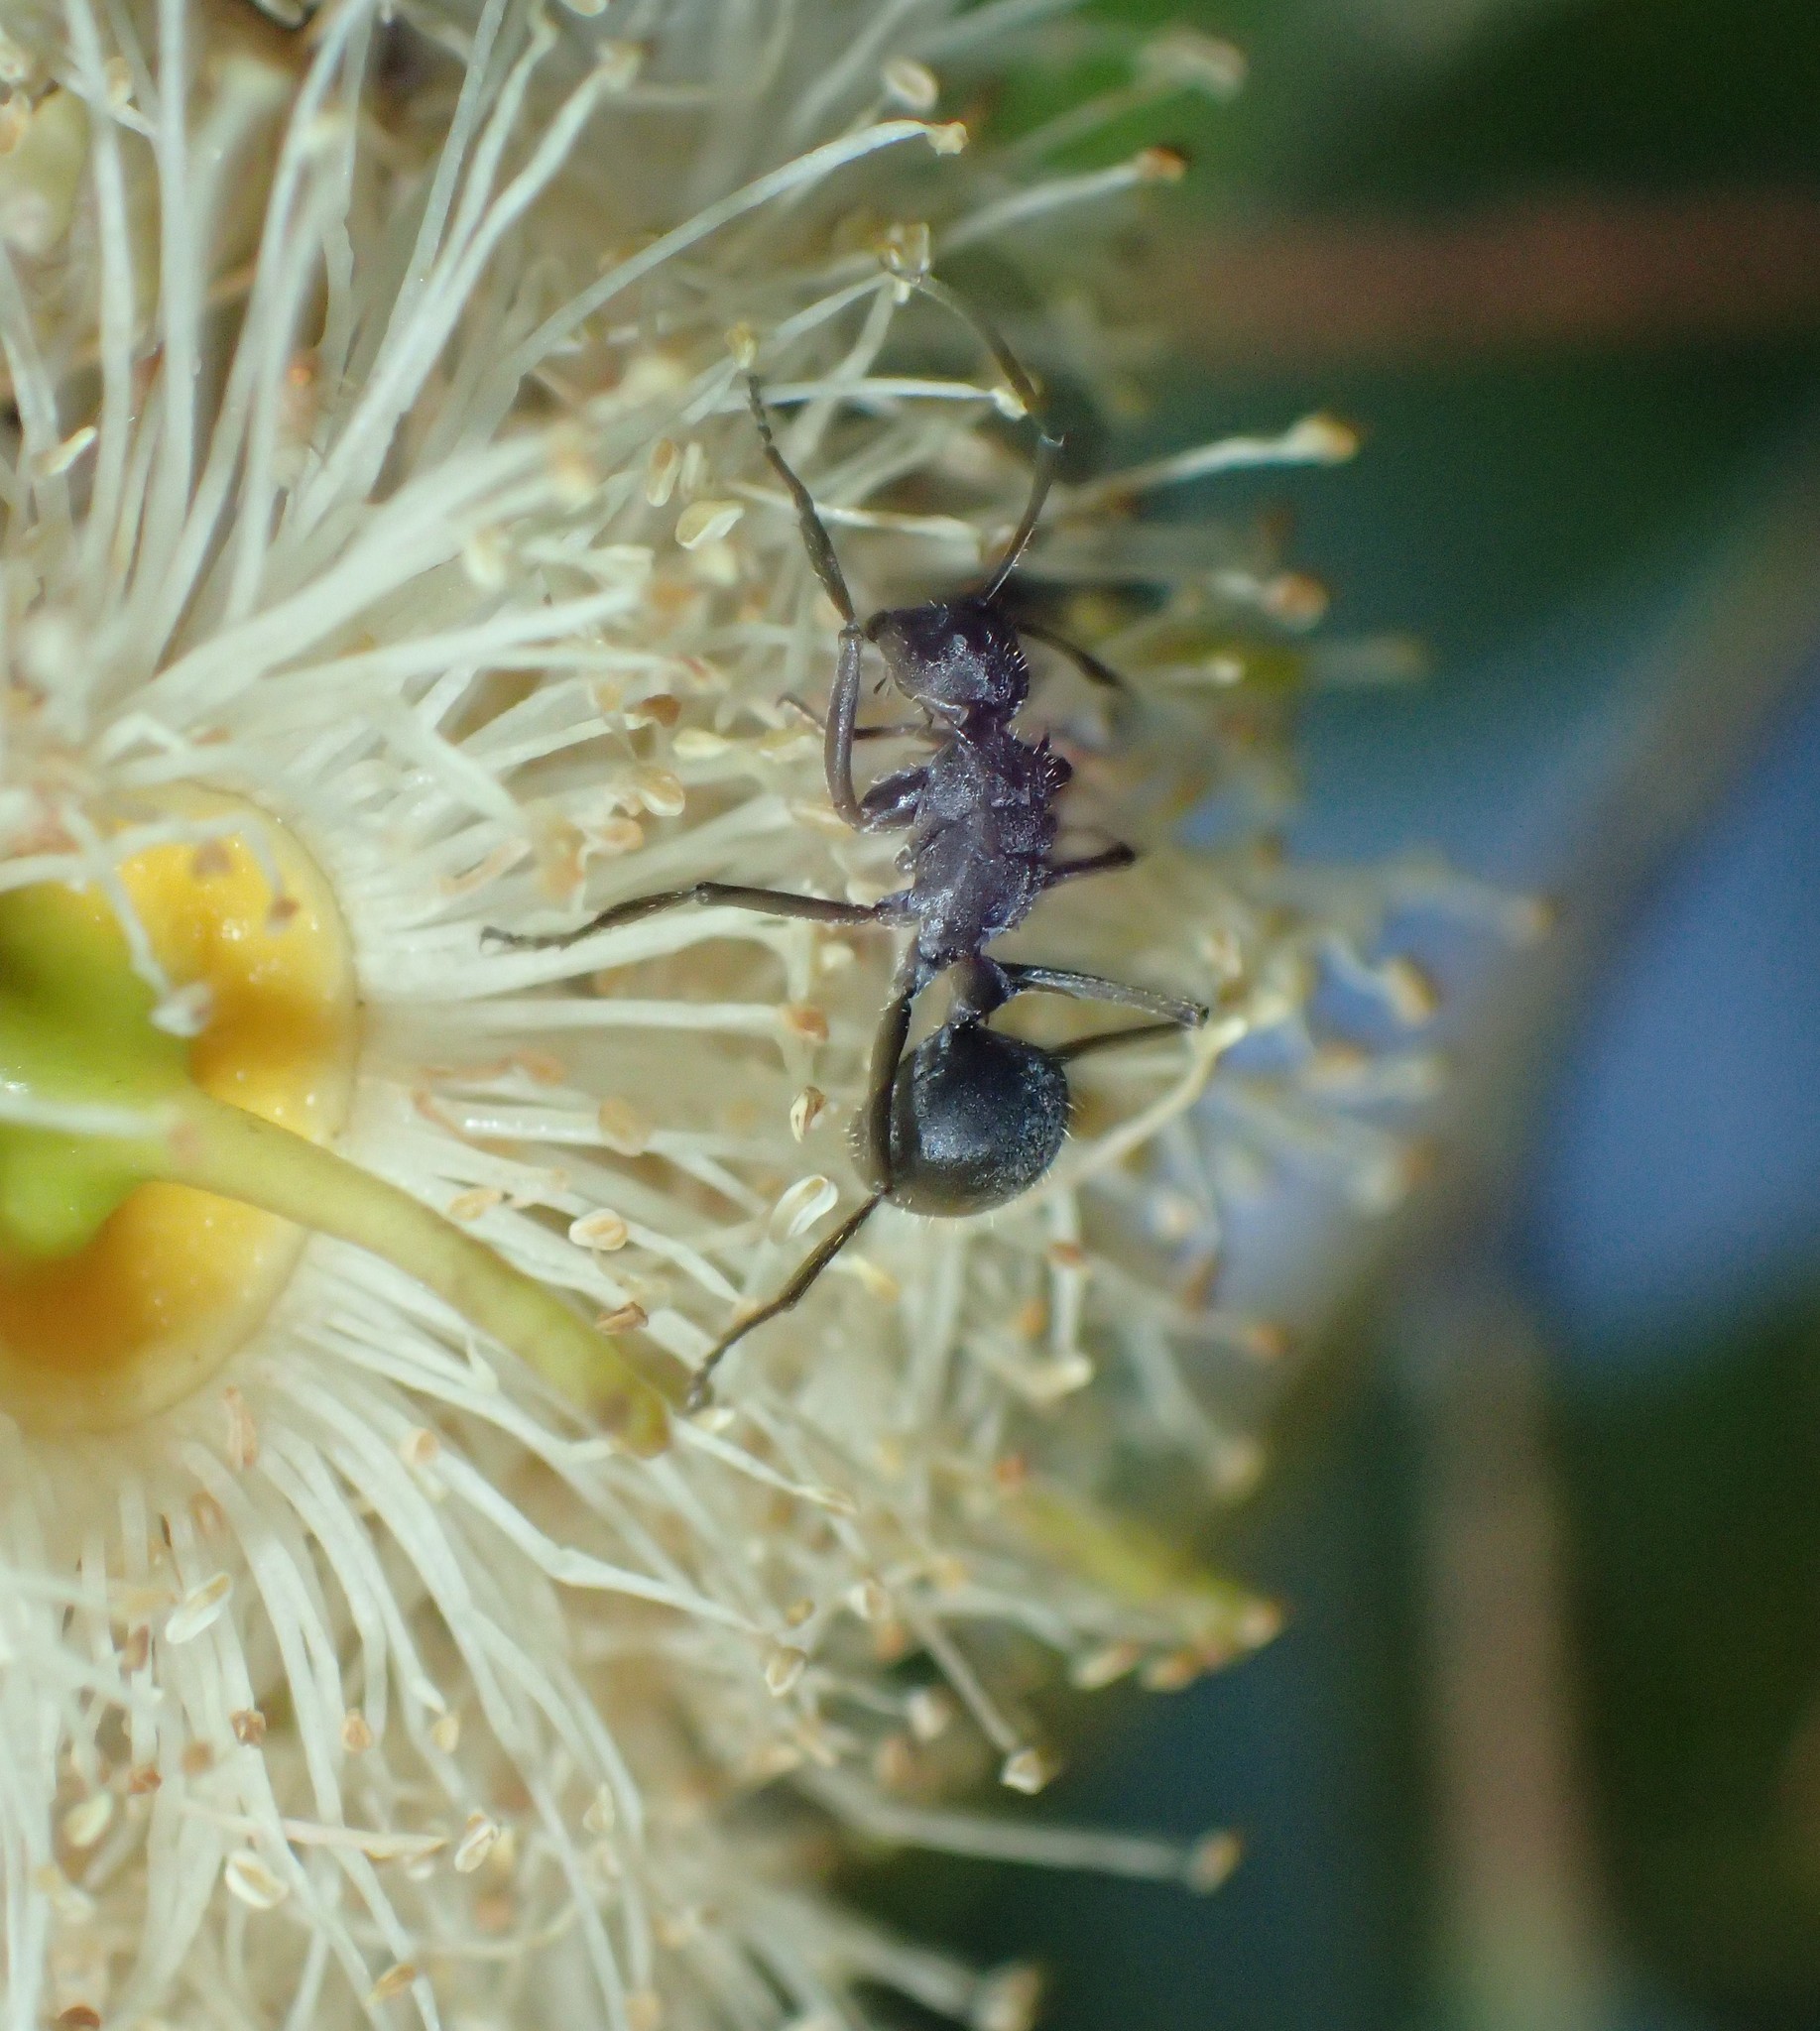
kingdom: Animalia
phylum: Arthropoda
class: Insecta
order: Hymenoptera
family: Formicidae
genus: Polyrhachis
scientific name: Polyrhachis schistacea
